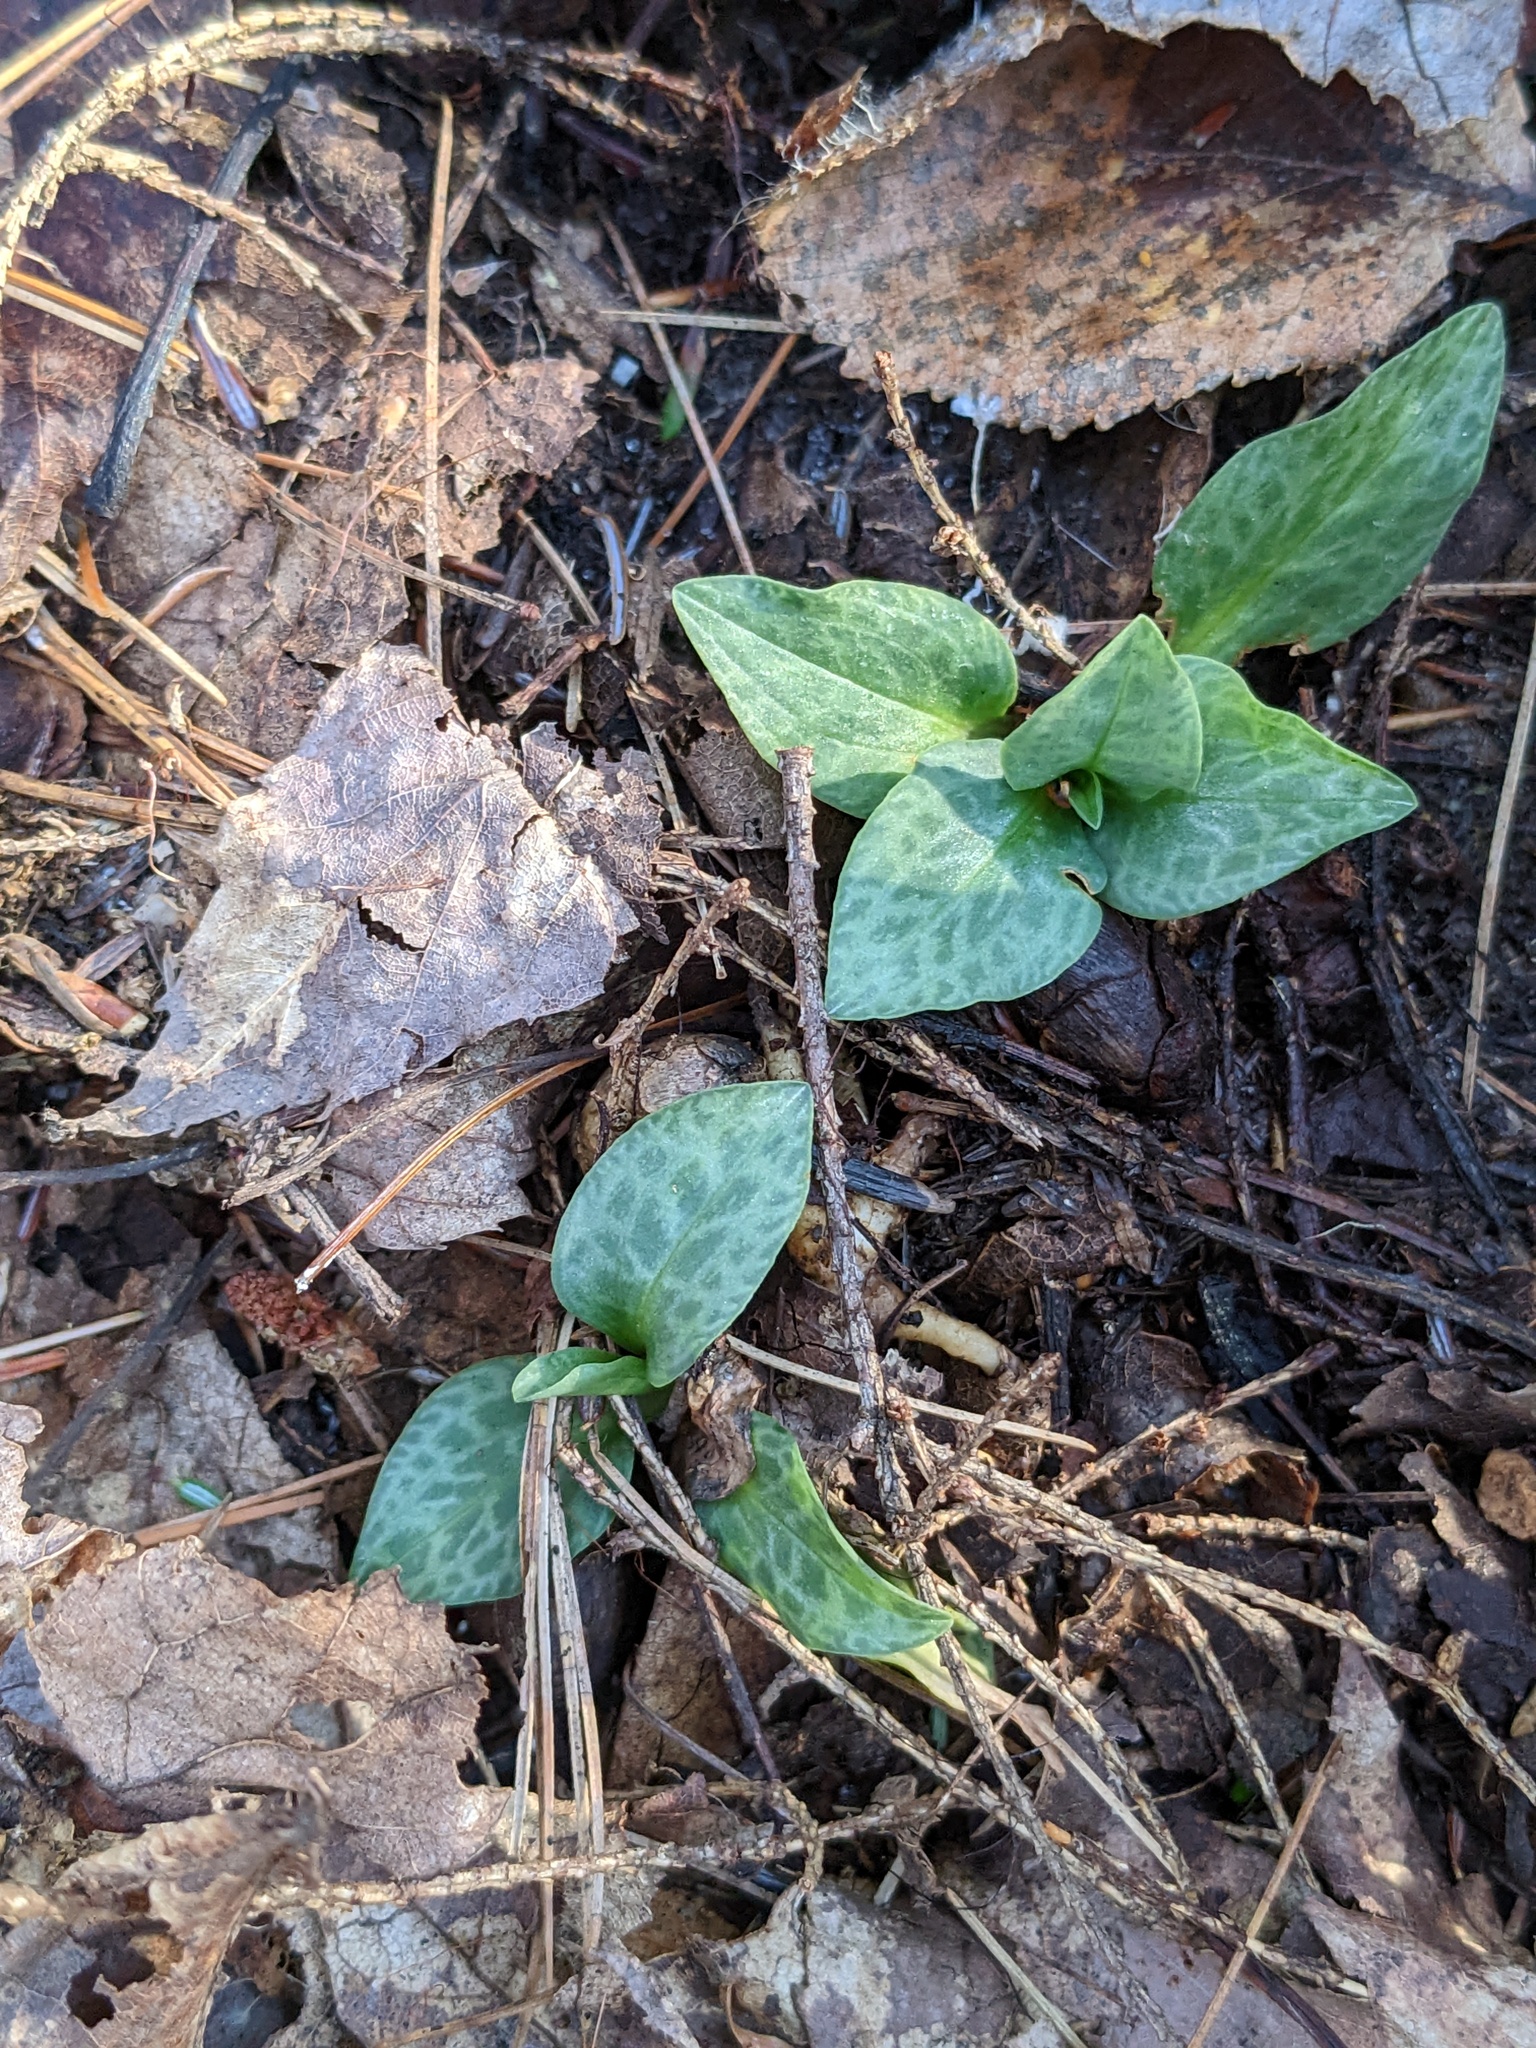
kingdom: Plantae
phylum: Tracheophyta
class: Liliopsida
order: Asparagales
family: Orchidaceae
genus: Goodyera
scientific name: Goodyera tesselata
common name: Checkered rattlesnake-plantain
